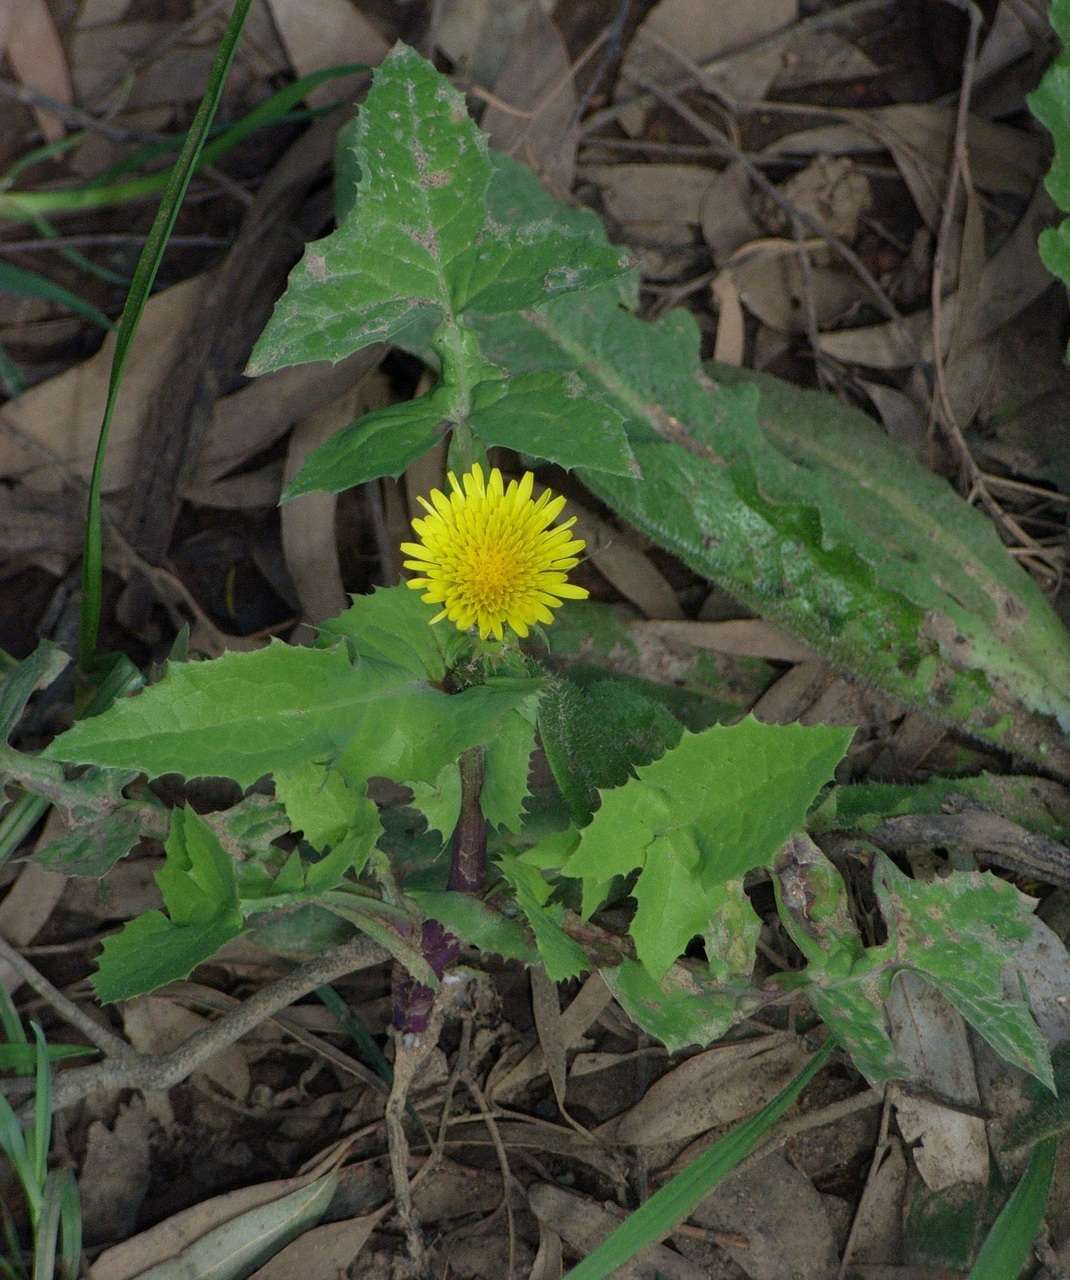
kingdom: Plantae
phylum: Tracheophyta
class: Magnoliopsida
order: Asterales
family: Asteraceae
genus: Sonchus
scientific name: Sonchus oleraceus
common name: Common sowthistle
